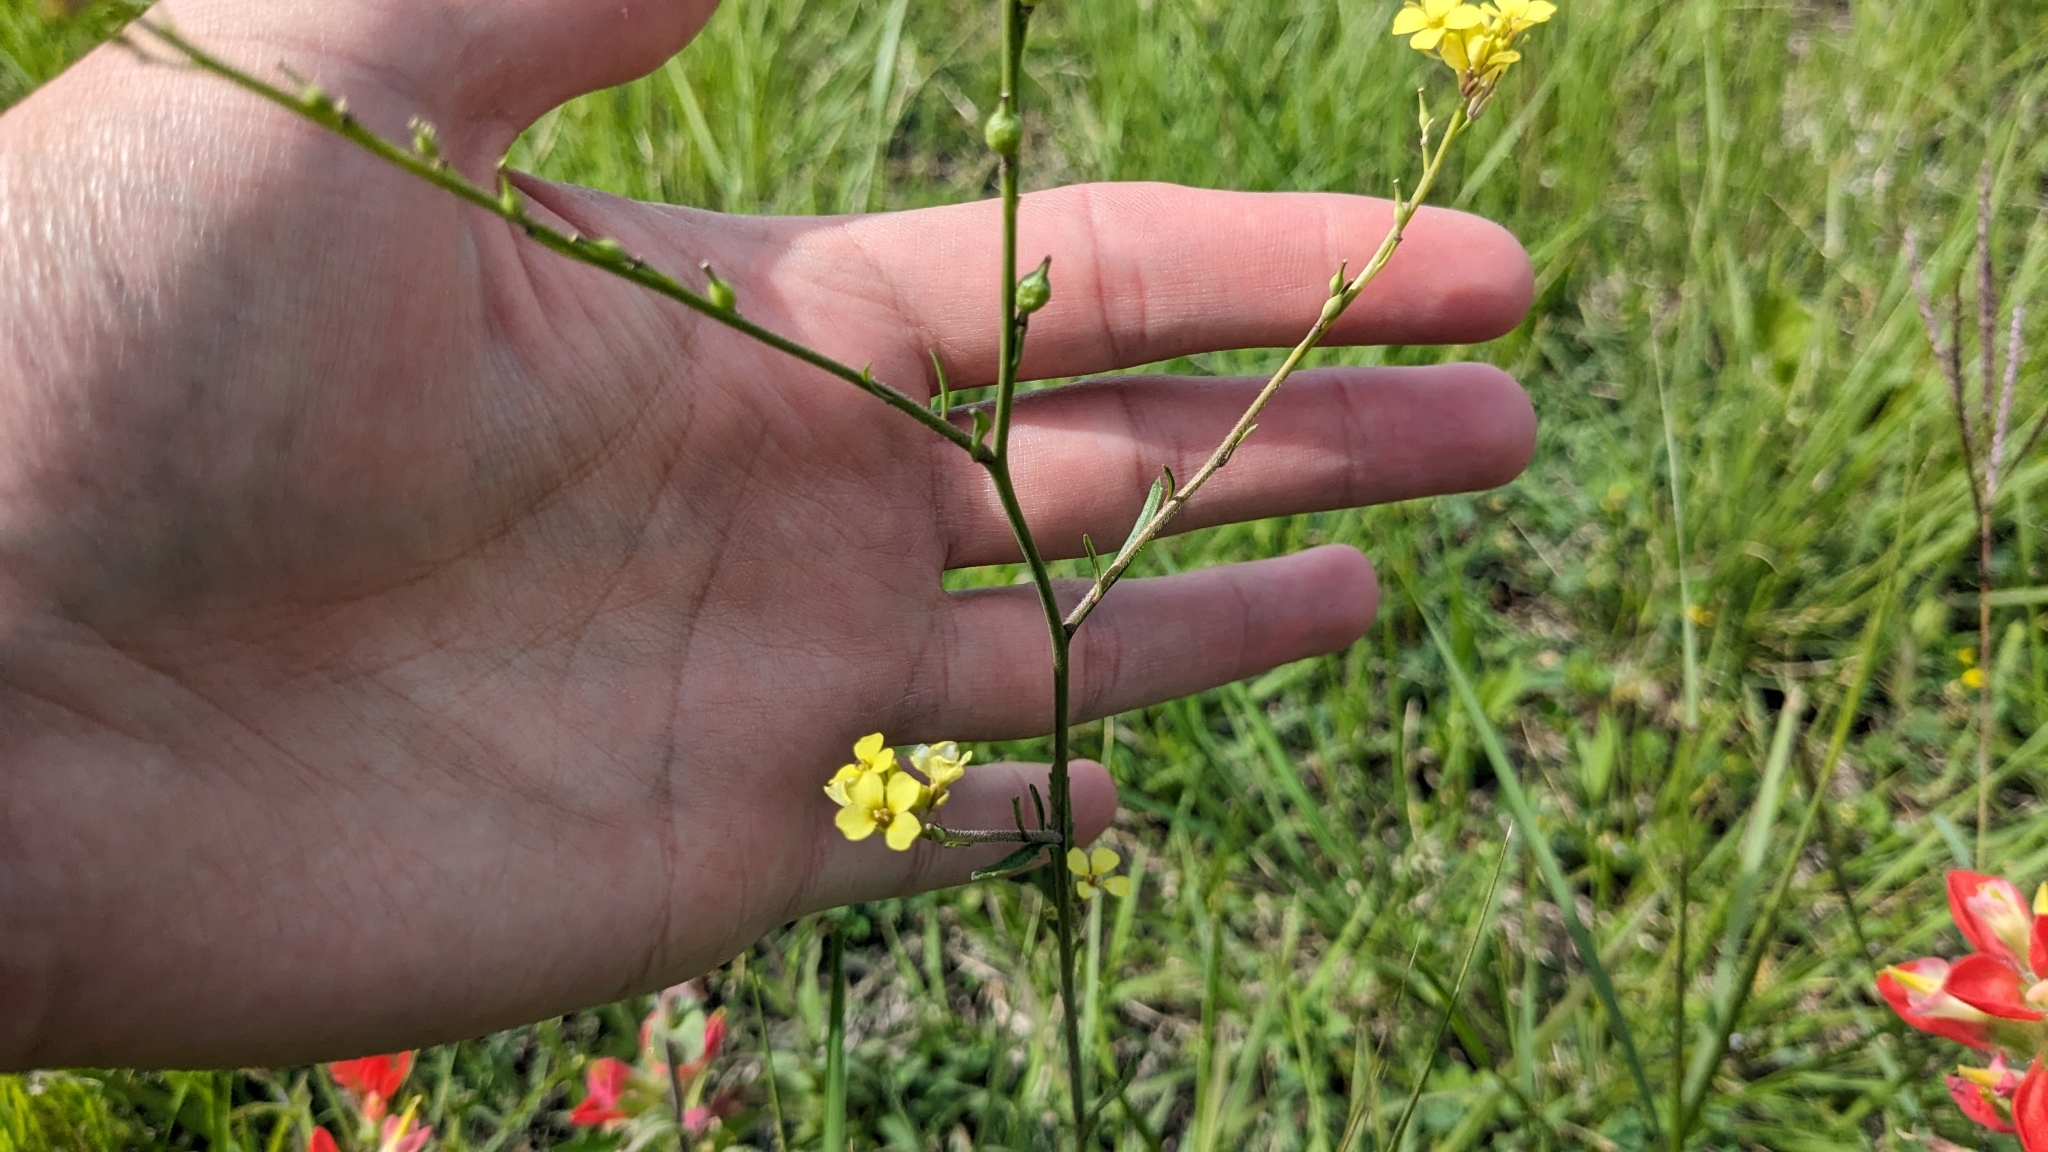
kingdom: Plantae
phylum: Tracheophyta
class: Magnoliopsida
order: Brassicales
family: Brassicaceae
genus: Rapistrum
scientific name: Rapistrum rugosum
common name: Annual bastardcabbage
